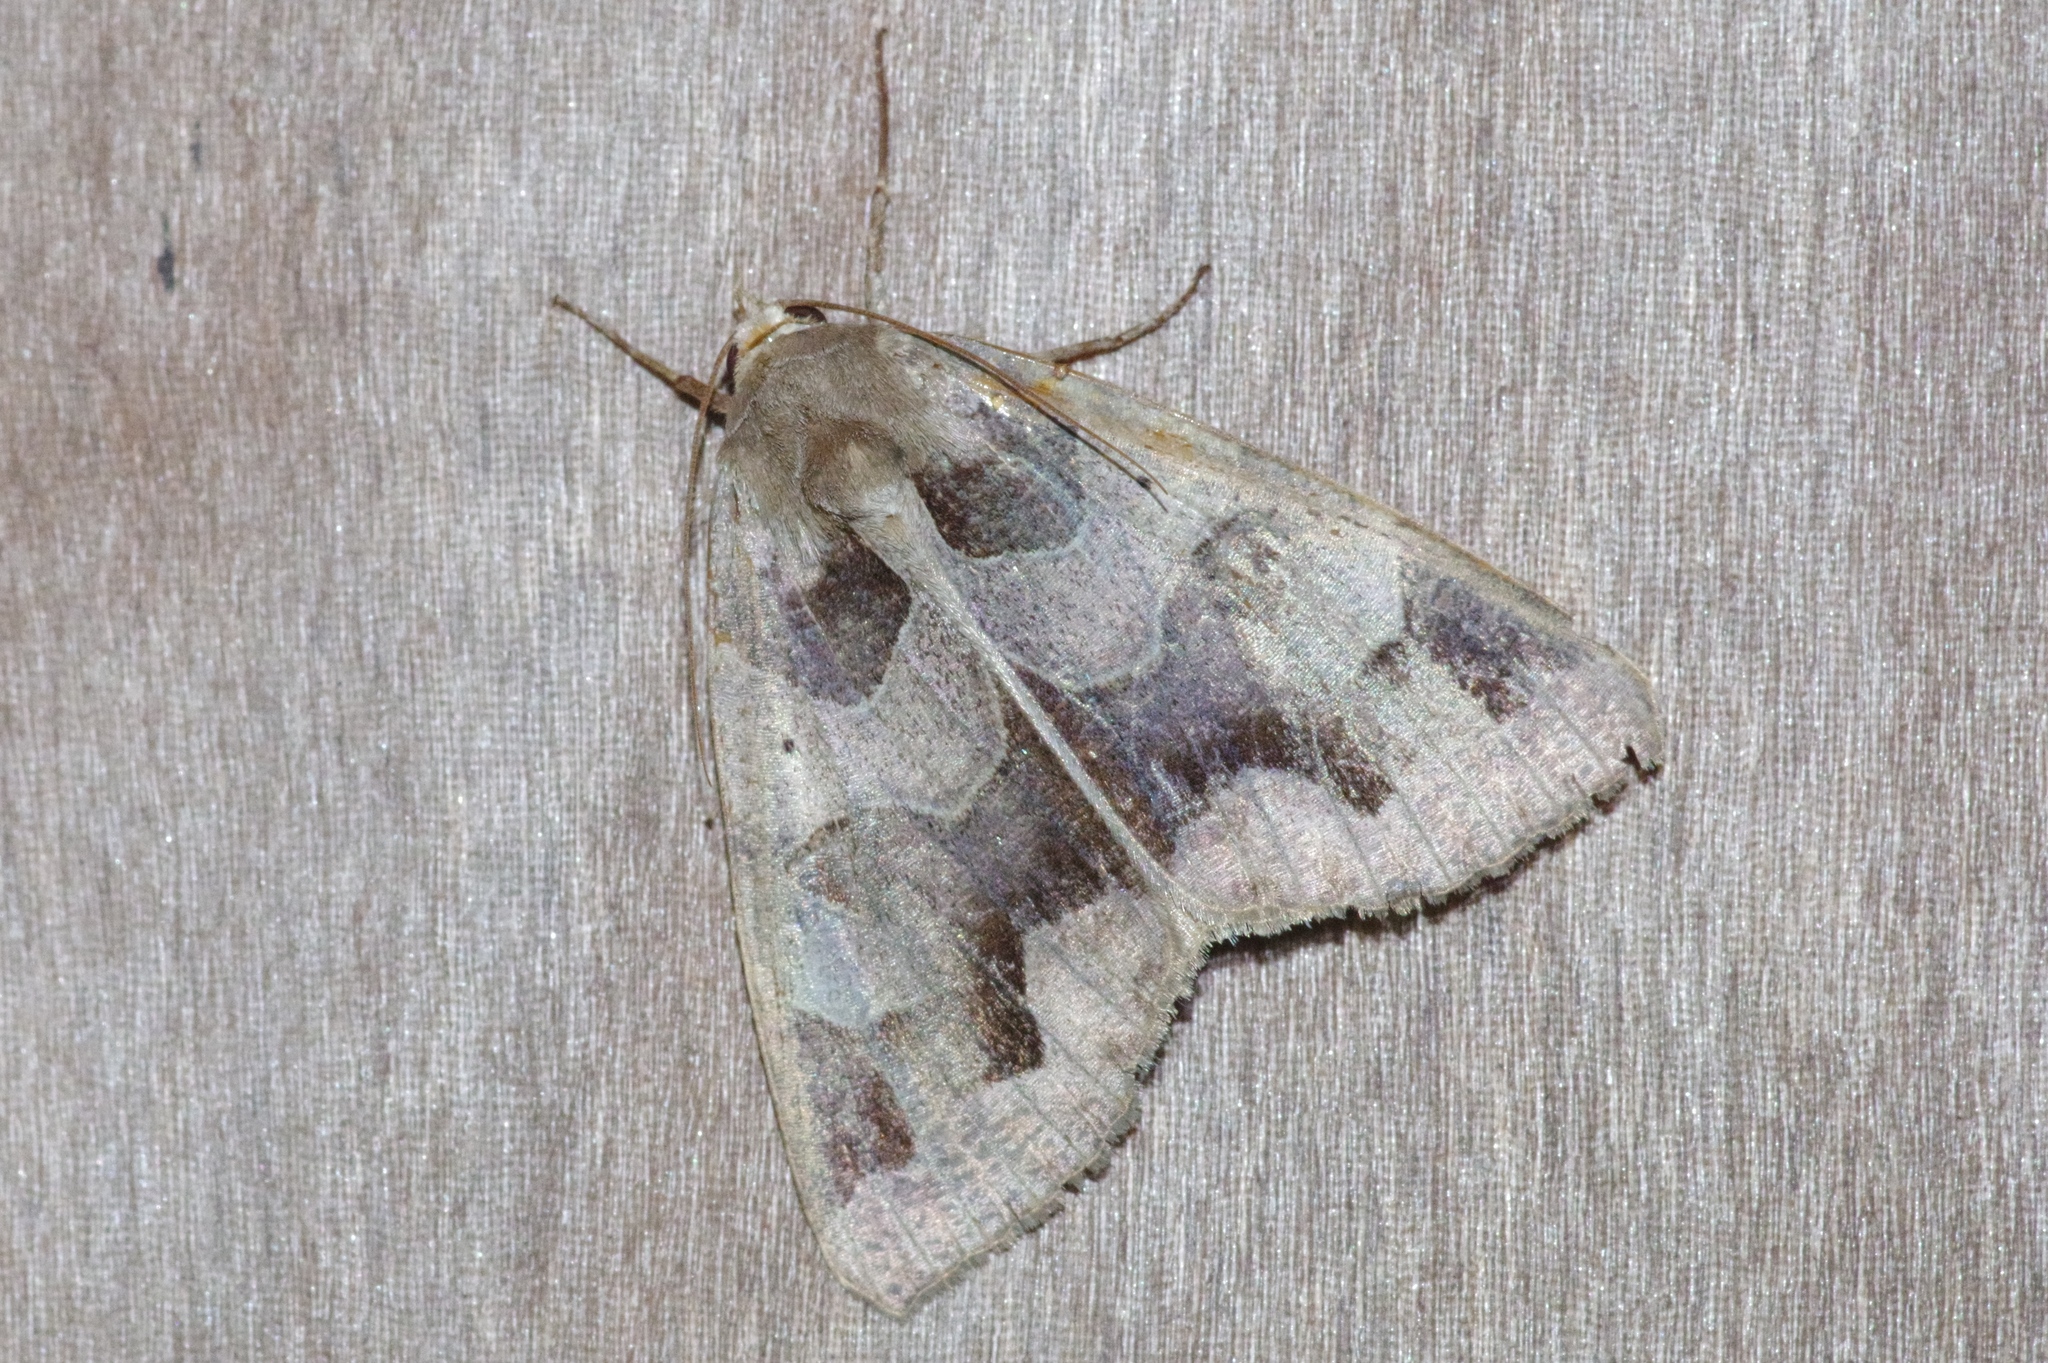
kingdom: Animalia
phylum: Arthropoda
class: Insecta
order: Lepidoptera
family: Erebidae
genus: Chrysorithrum
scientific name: Chrysorithrum amata
